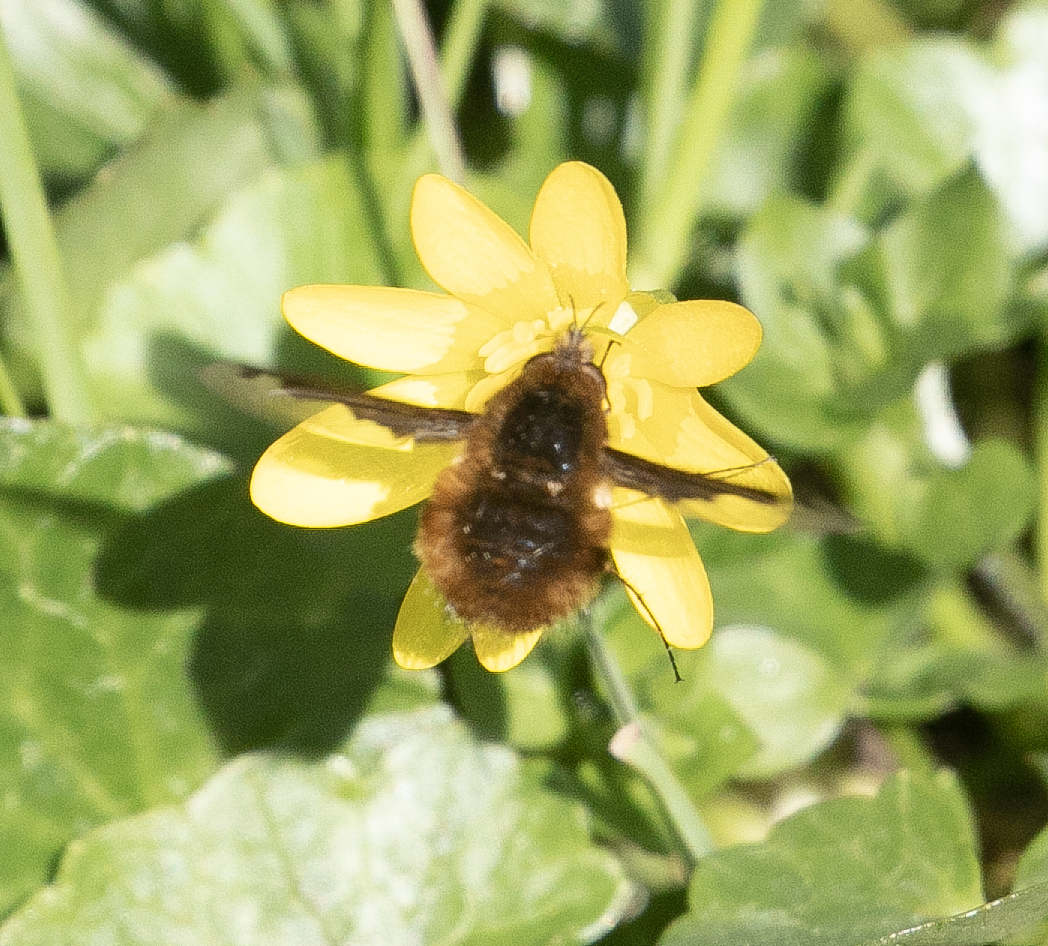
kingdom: Animalia
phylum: Arthropoda
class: Insecta
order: Diptera
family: Bombyliidae
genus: Bombylius
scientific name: Bombylius major
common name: Bee fly
